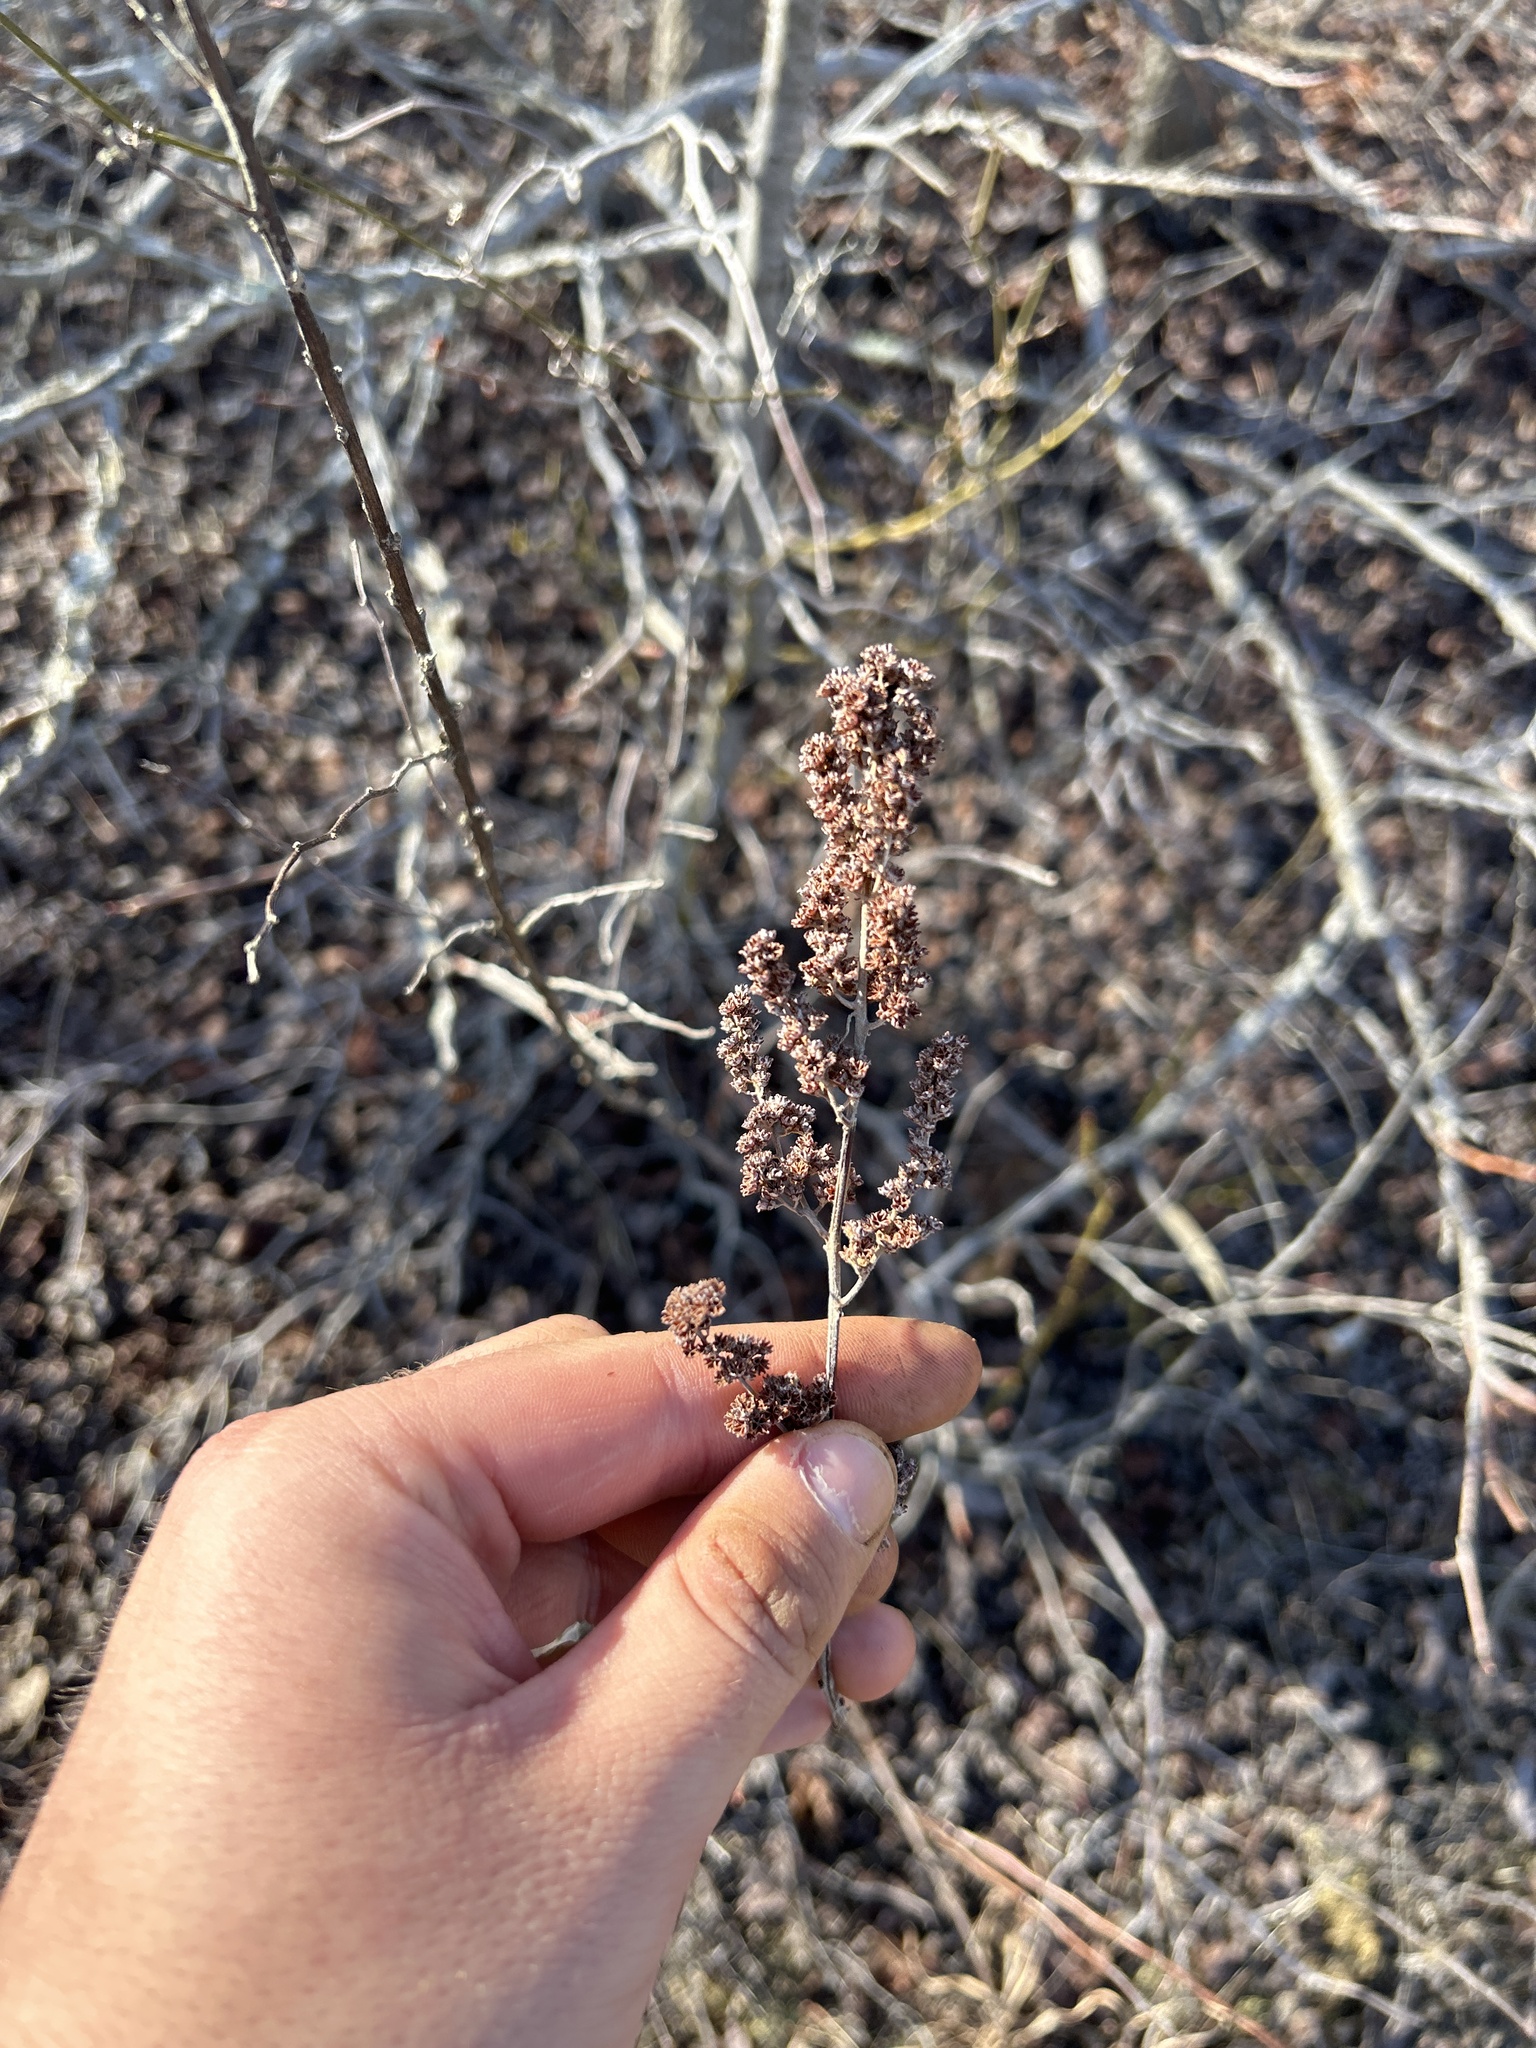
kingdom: Plantae
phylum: Tracheophyta
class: Magnoliopsida
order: Rosales
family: Rosaceae
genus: Spiraea
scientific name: Spiraea tomentosa
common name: Hardhack
